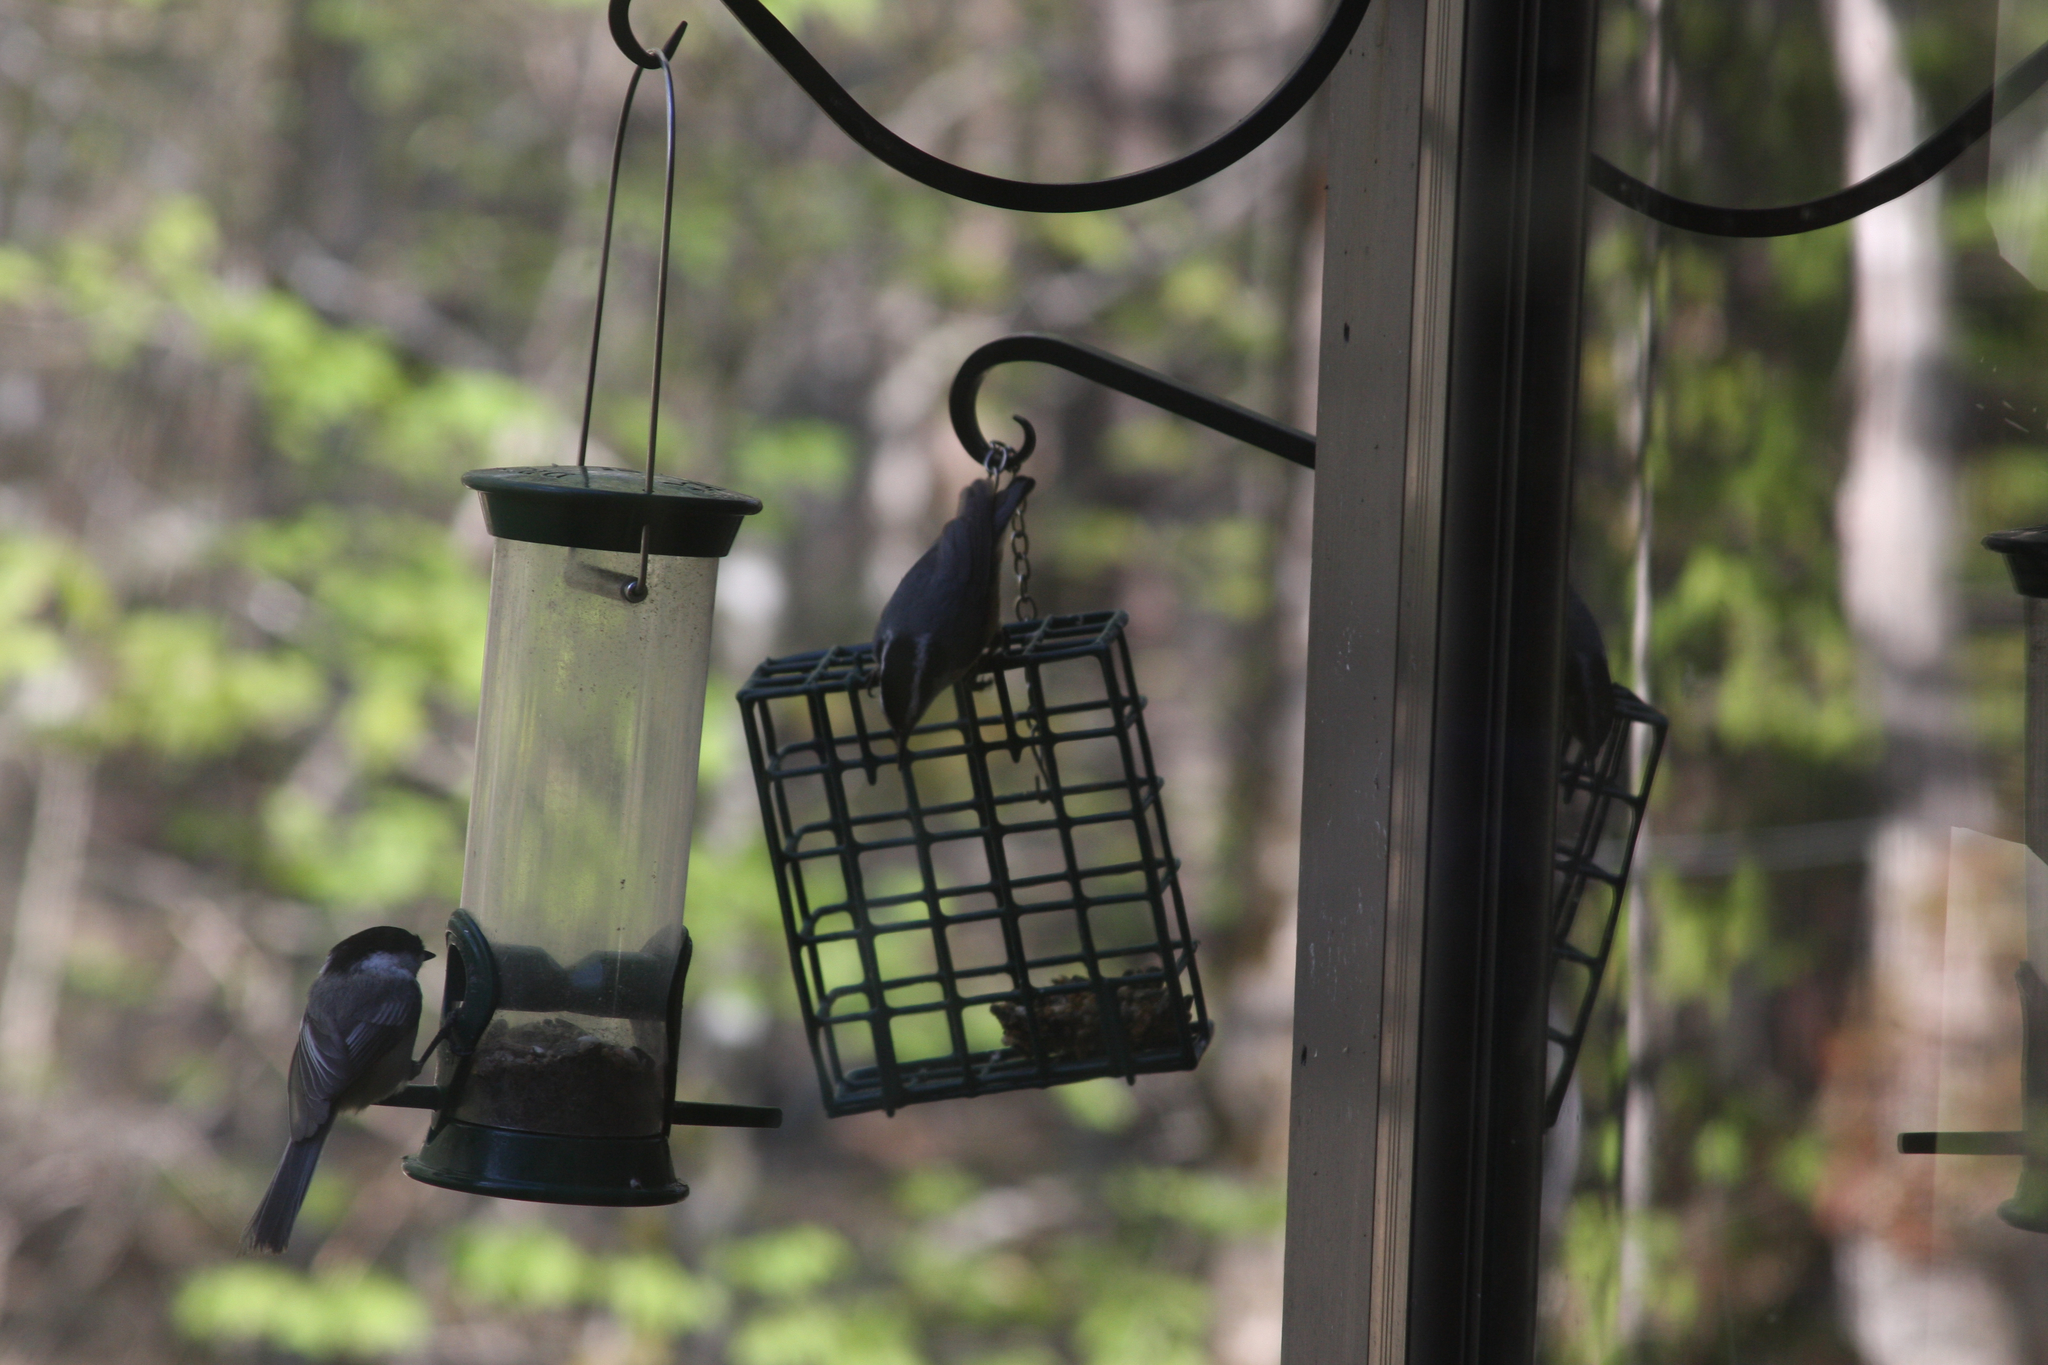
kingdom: Animalia
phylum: Chordata
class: Aves
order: Passeriformes
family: Sittidae
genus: Sitta
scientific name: Sitta canadensis
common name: Red-breasted nuthatch
